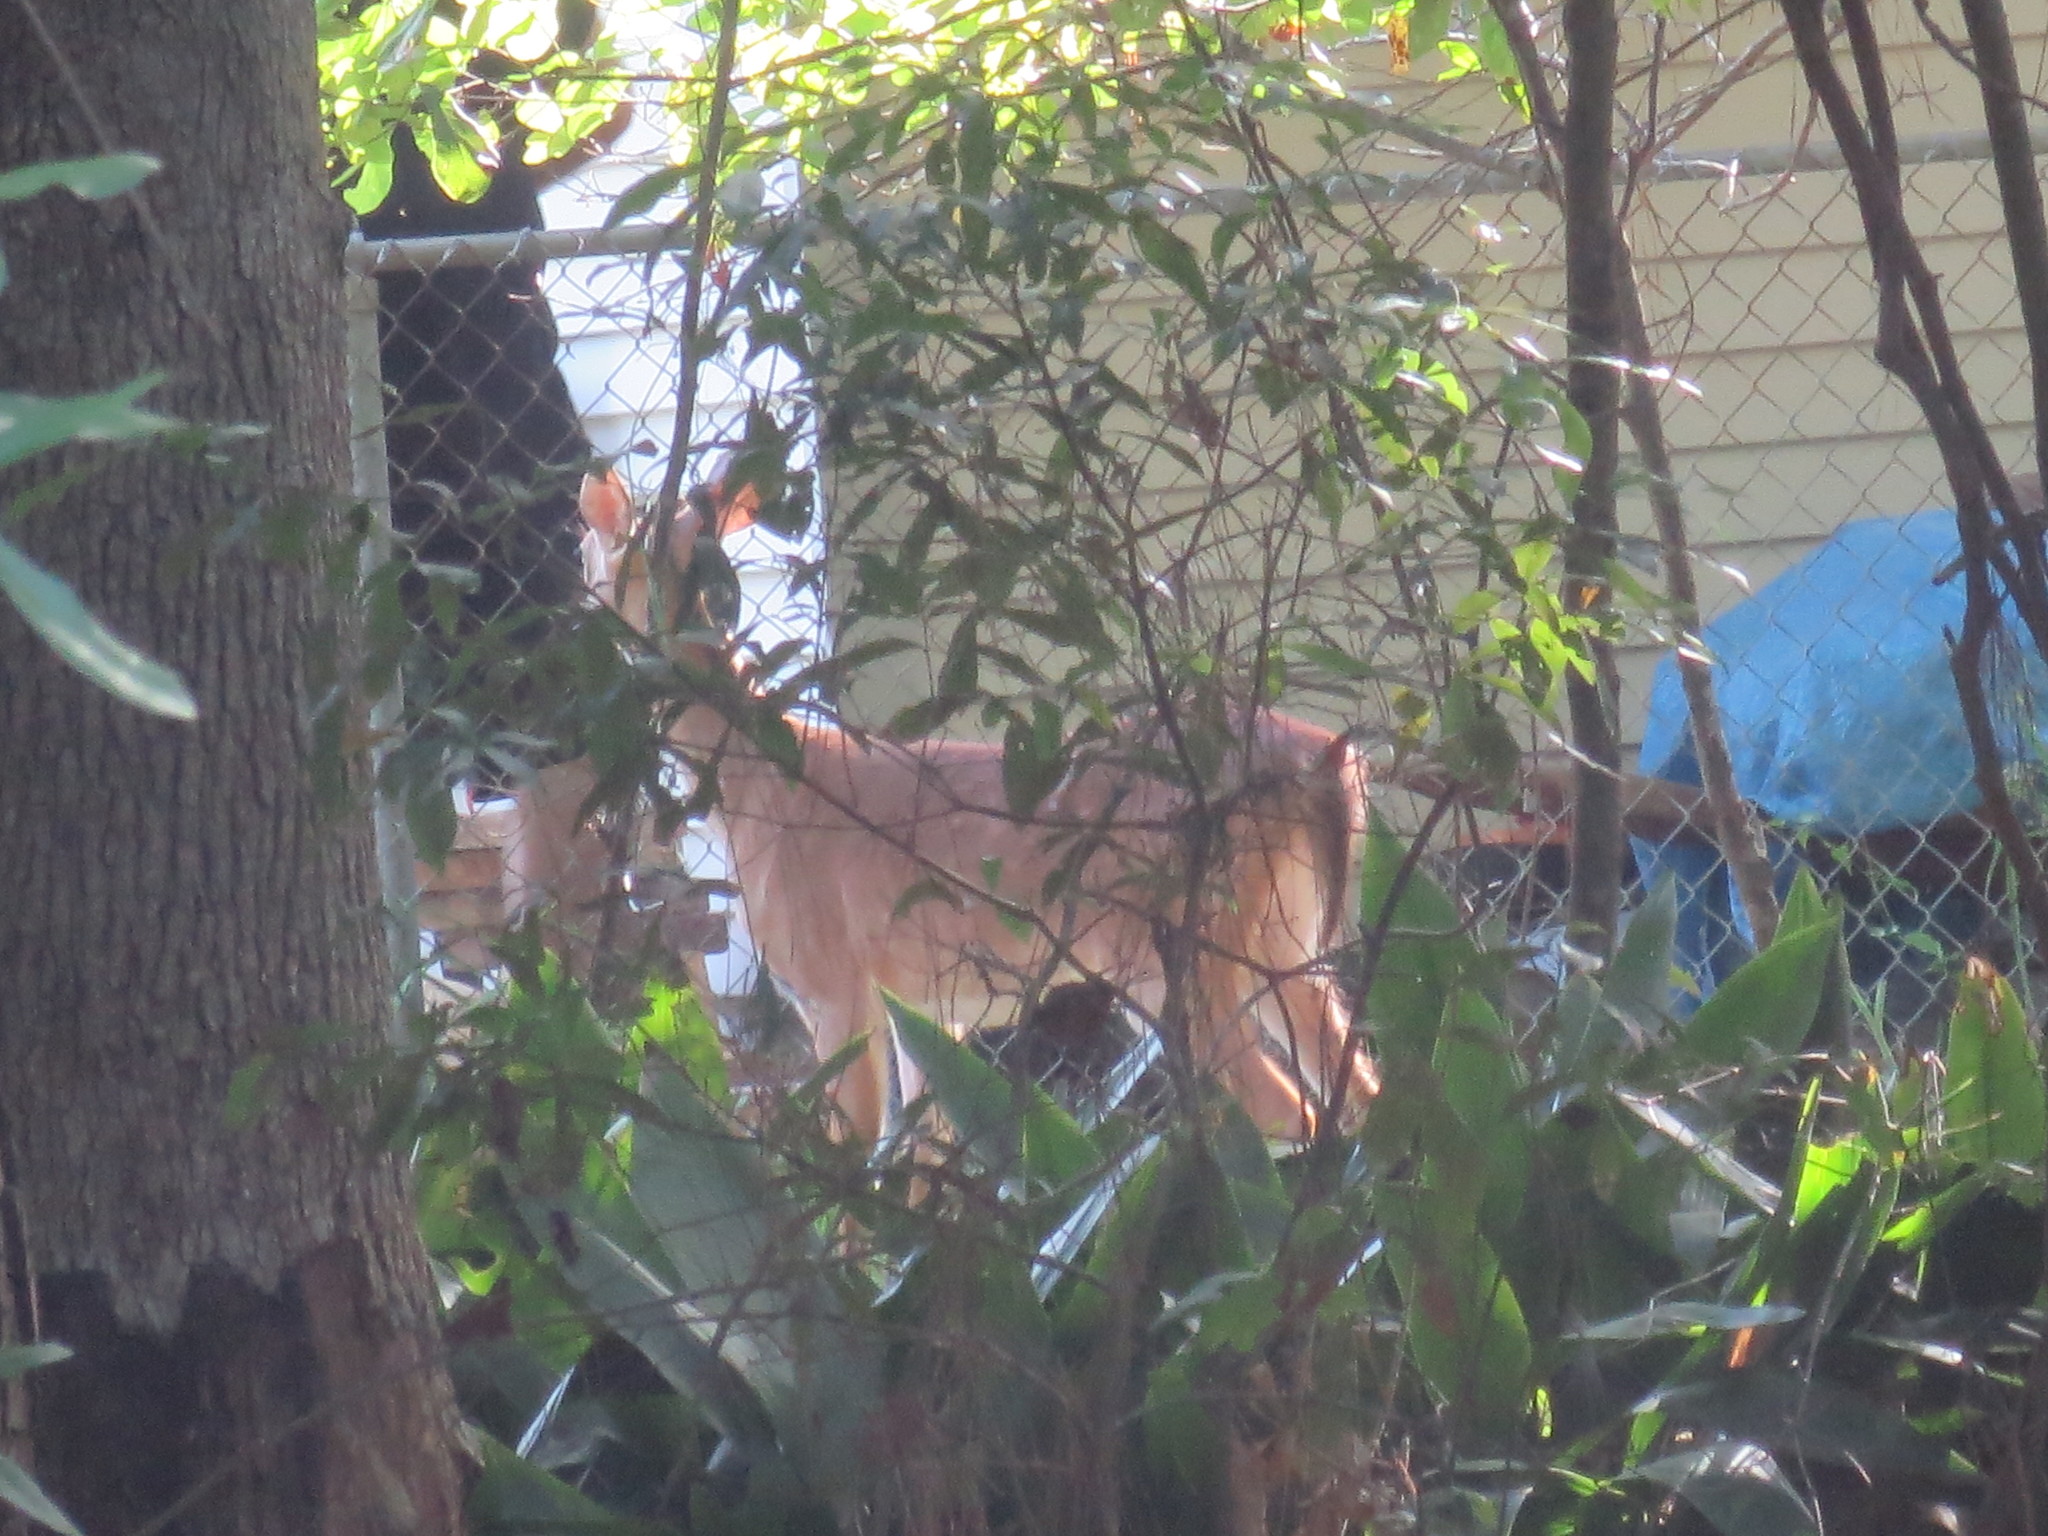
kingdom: Animalia
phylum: Chordata
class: Mammalia
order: Artiodactyla
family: Cervidae
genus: Odocoileus
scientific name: Odocoileus virginianus
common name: White-tailed deer
